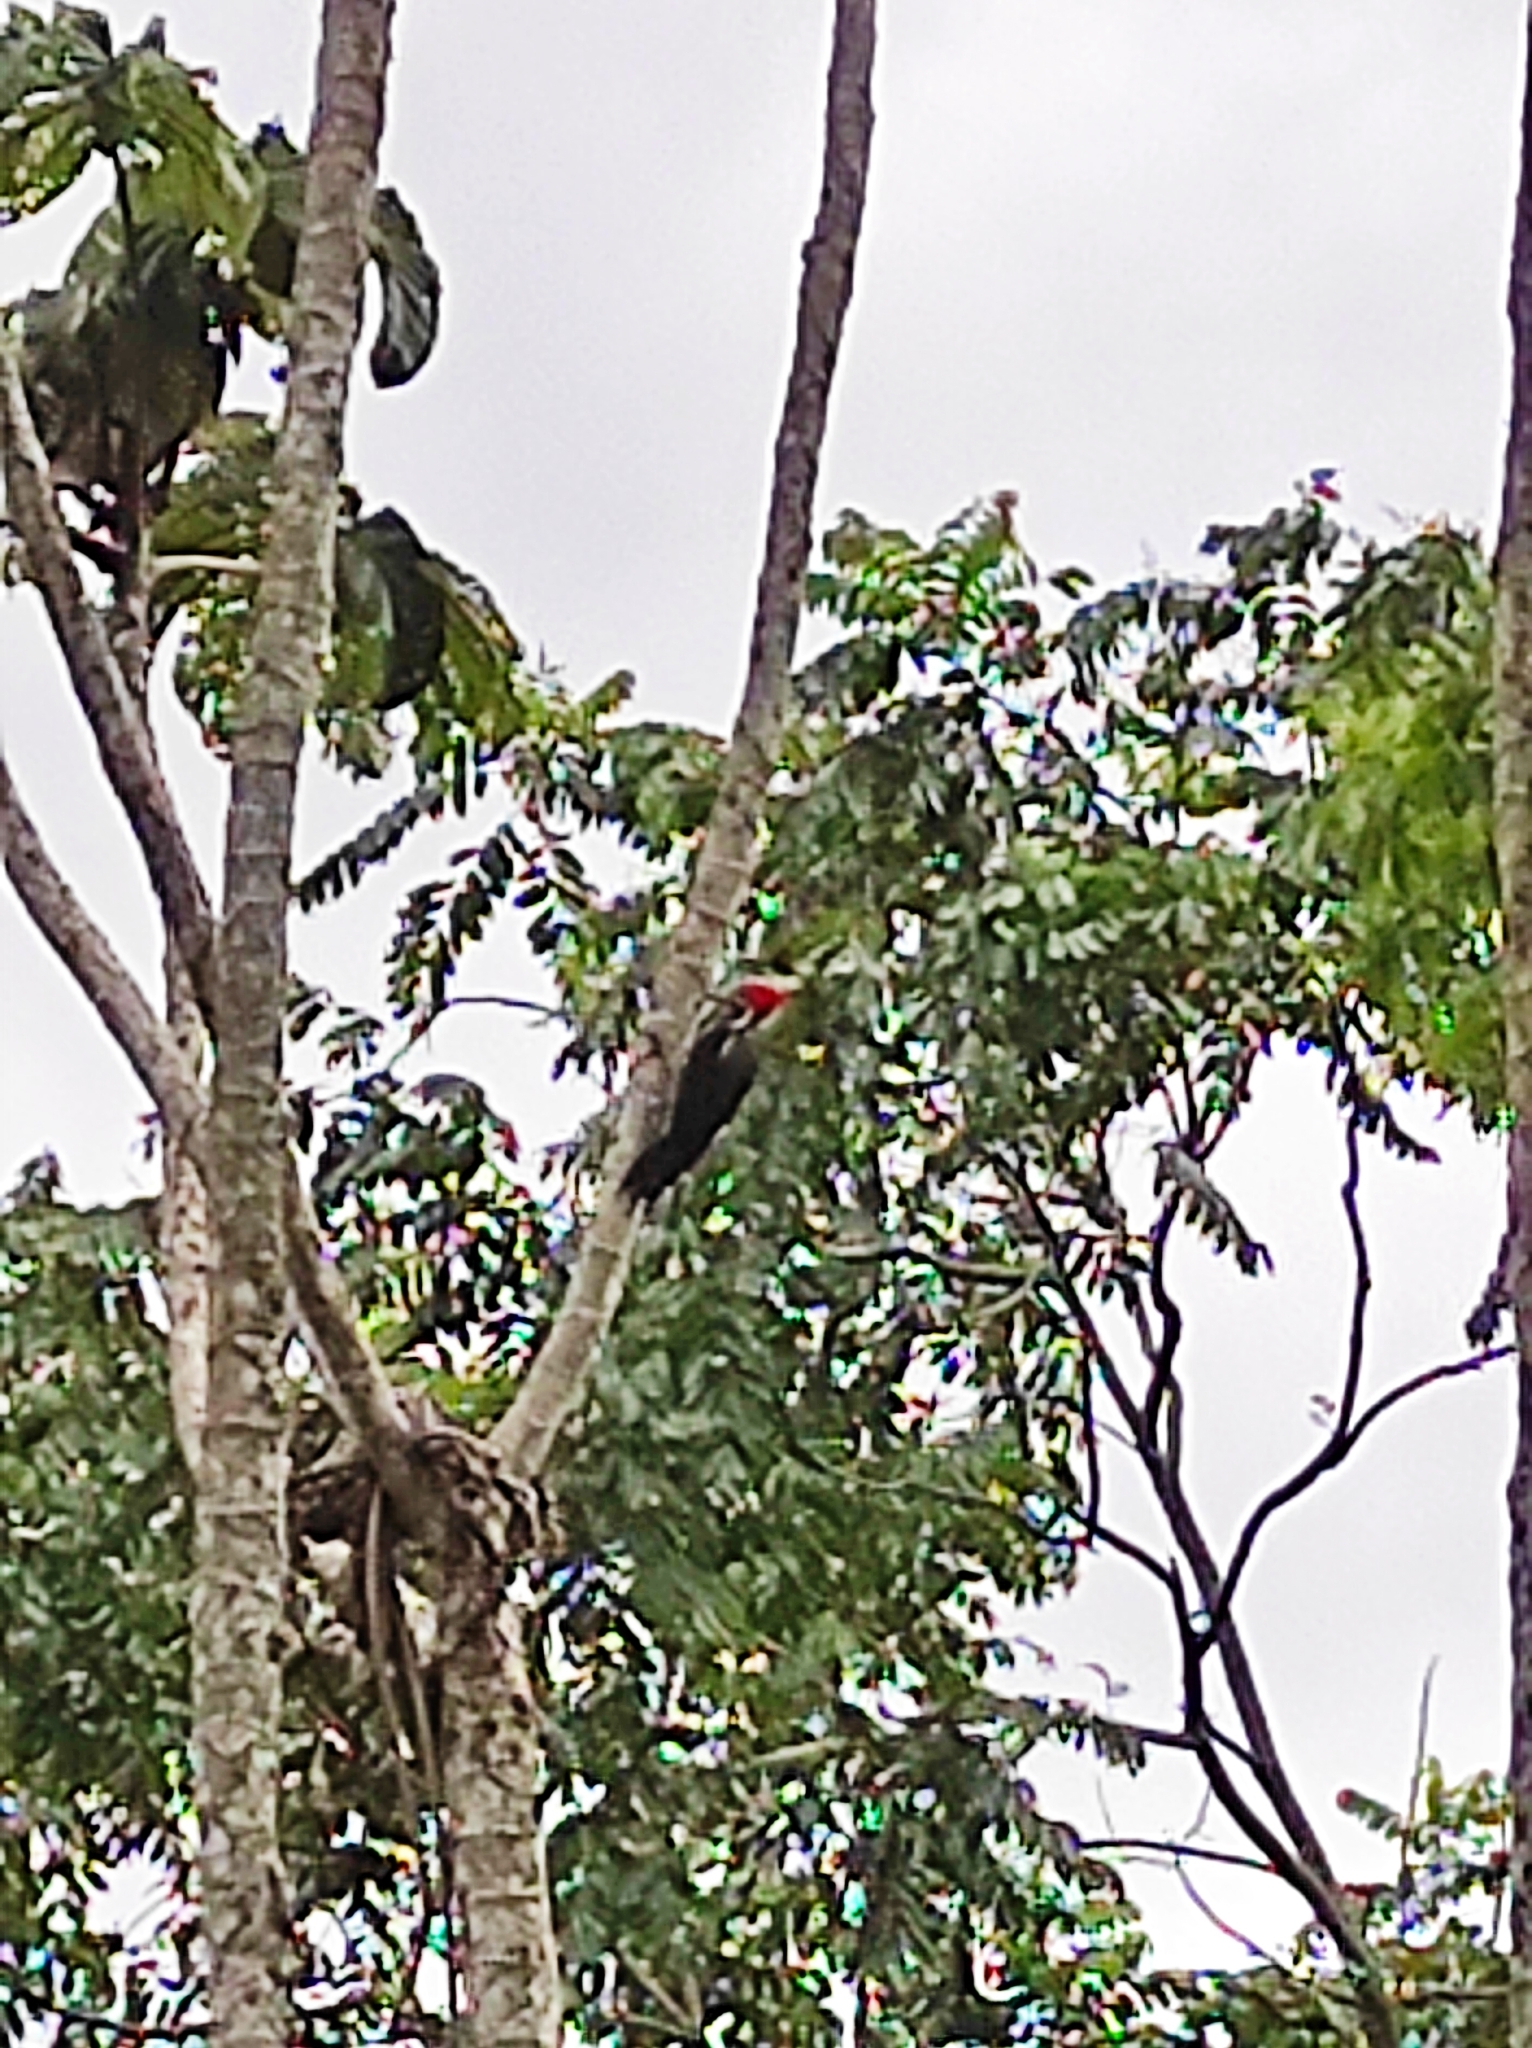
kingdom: Animalia
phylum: Chordata
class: Aves
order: Piciformes
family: Picidae
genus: Dryocopus
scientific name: Dryocopus lineatus
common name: Lineated woodpecker
